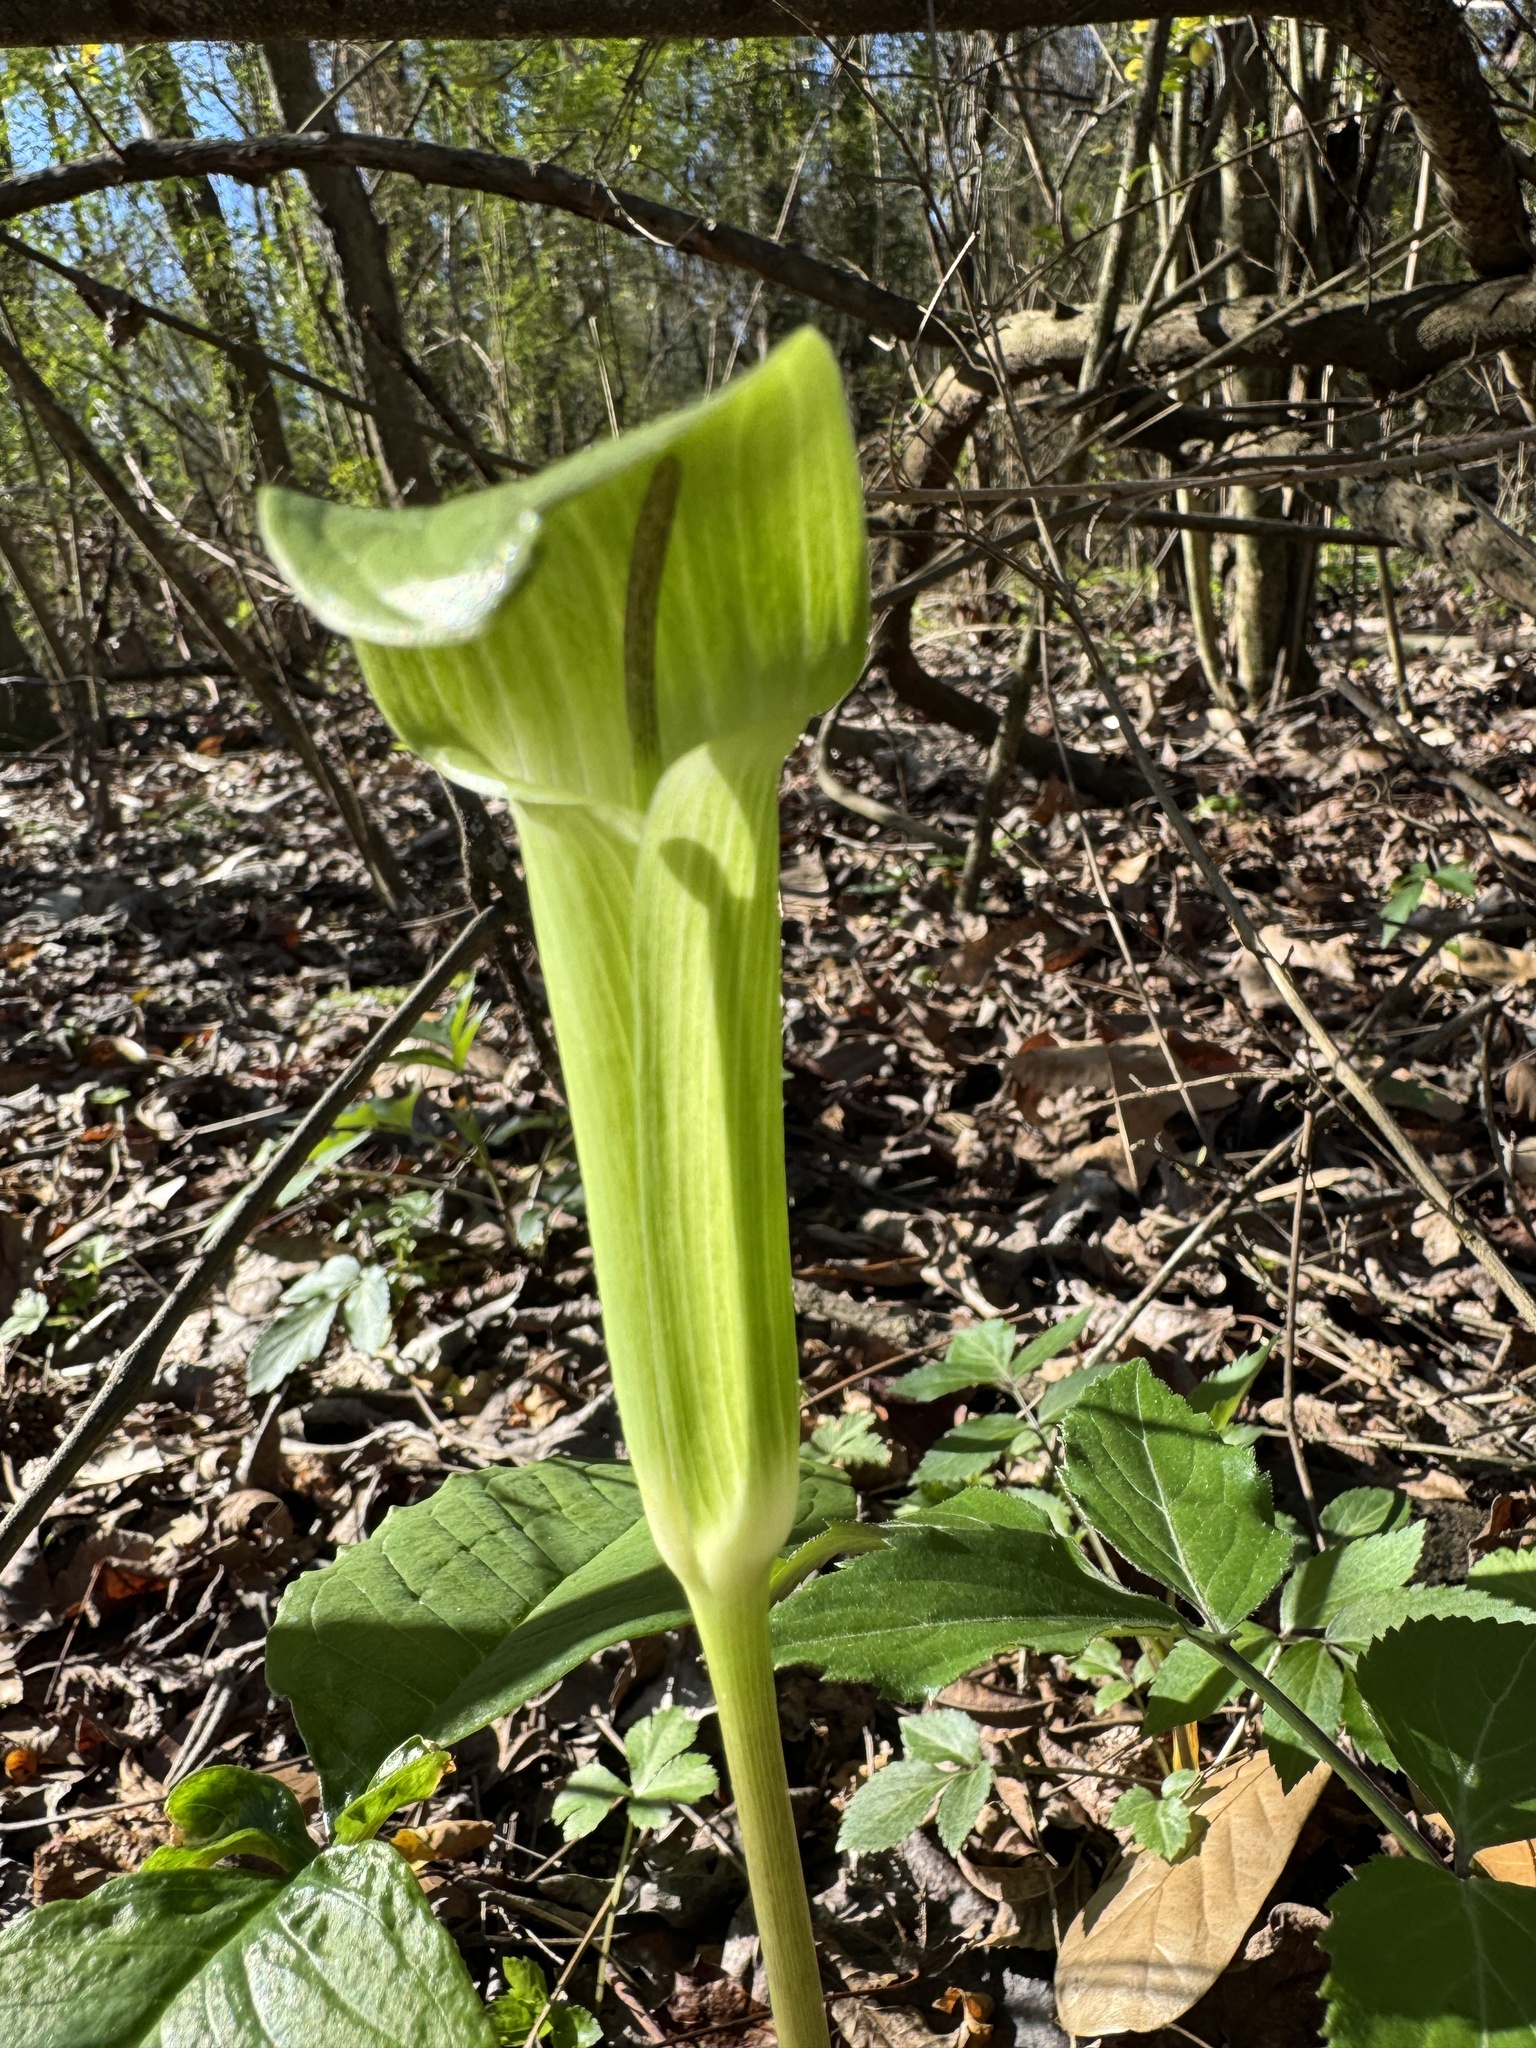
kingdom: Plantae
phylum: Tracheophyta
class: Liliopsida
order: Alismatales
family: Araceae
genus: Arisaema
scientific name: Arisaema quinatum
